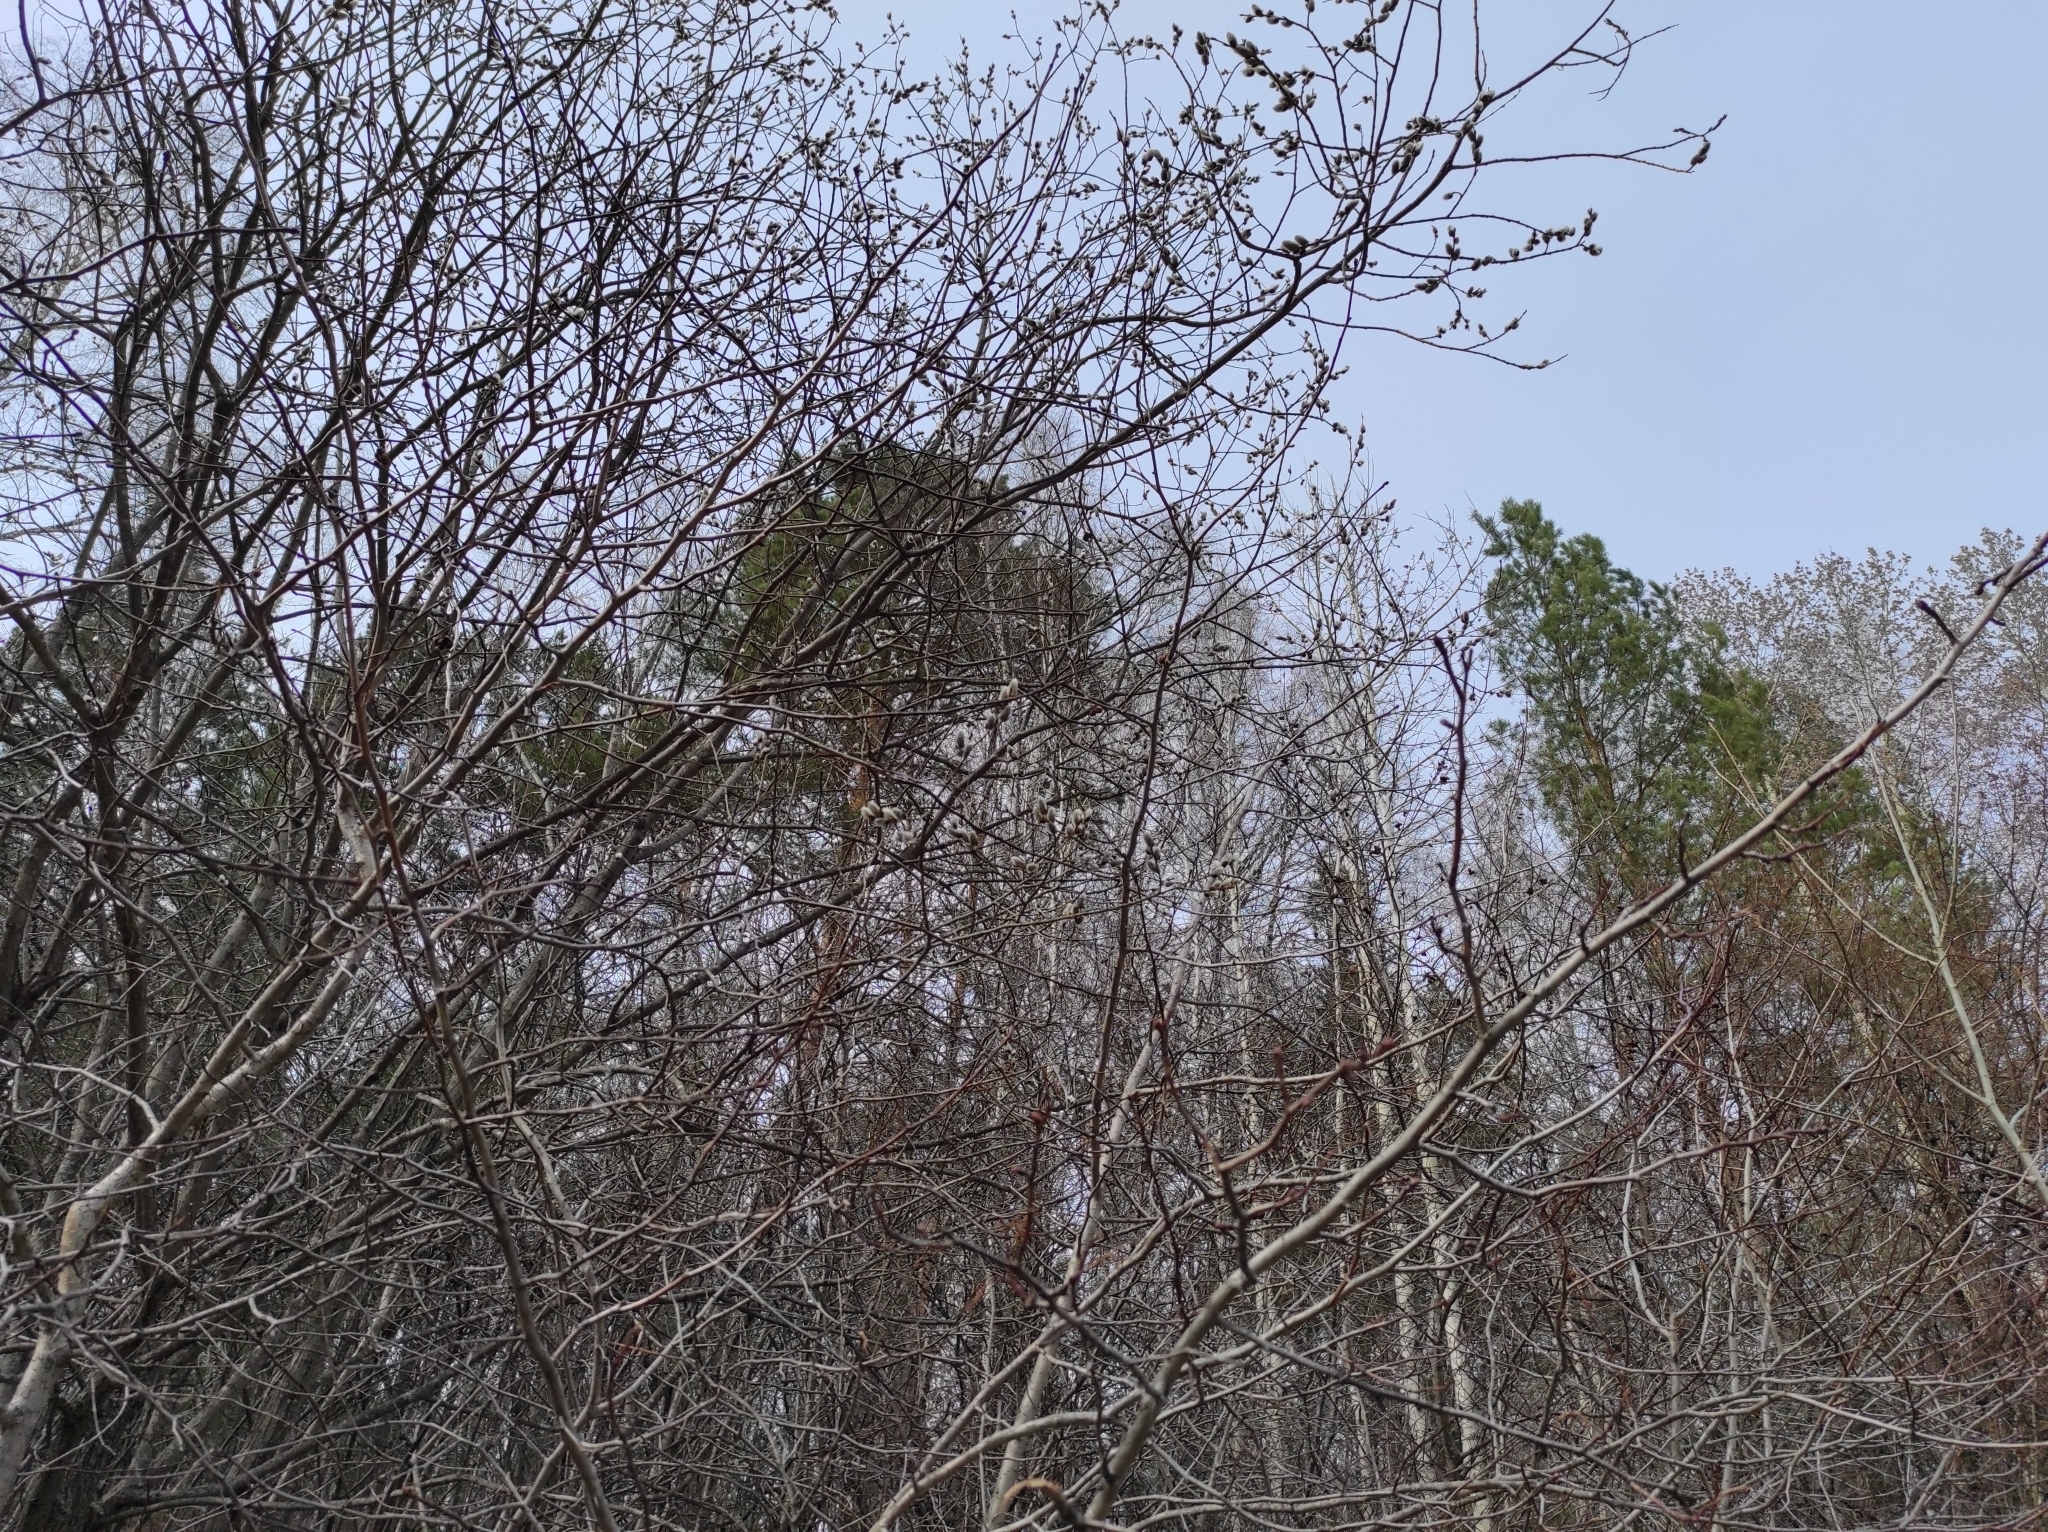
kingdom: Plantae
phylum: Tracheophyta
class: Pinopsida
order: Pinales
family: Pinaceae
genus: Pinus
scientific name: Pinus sylvestris
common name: Scots pine
